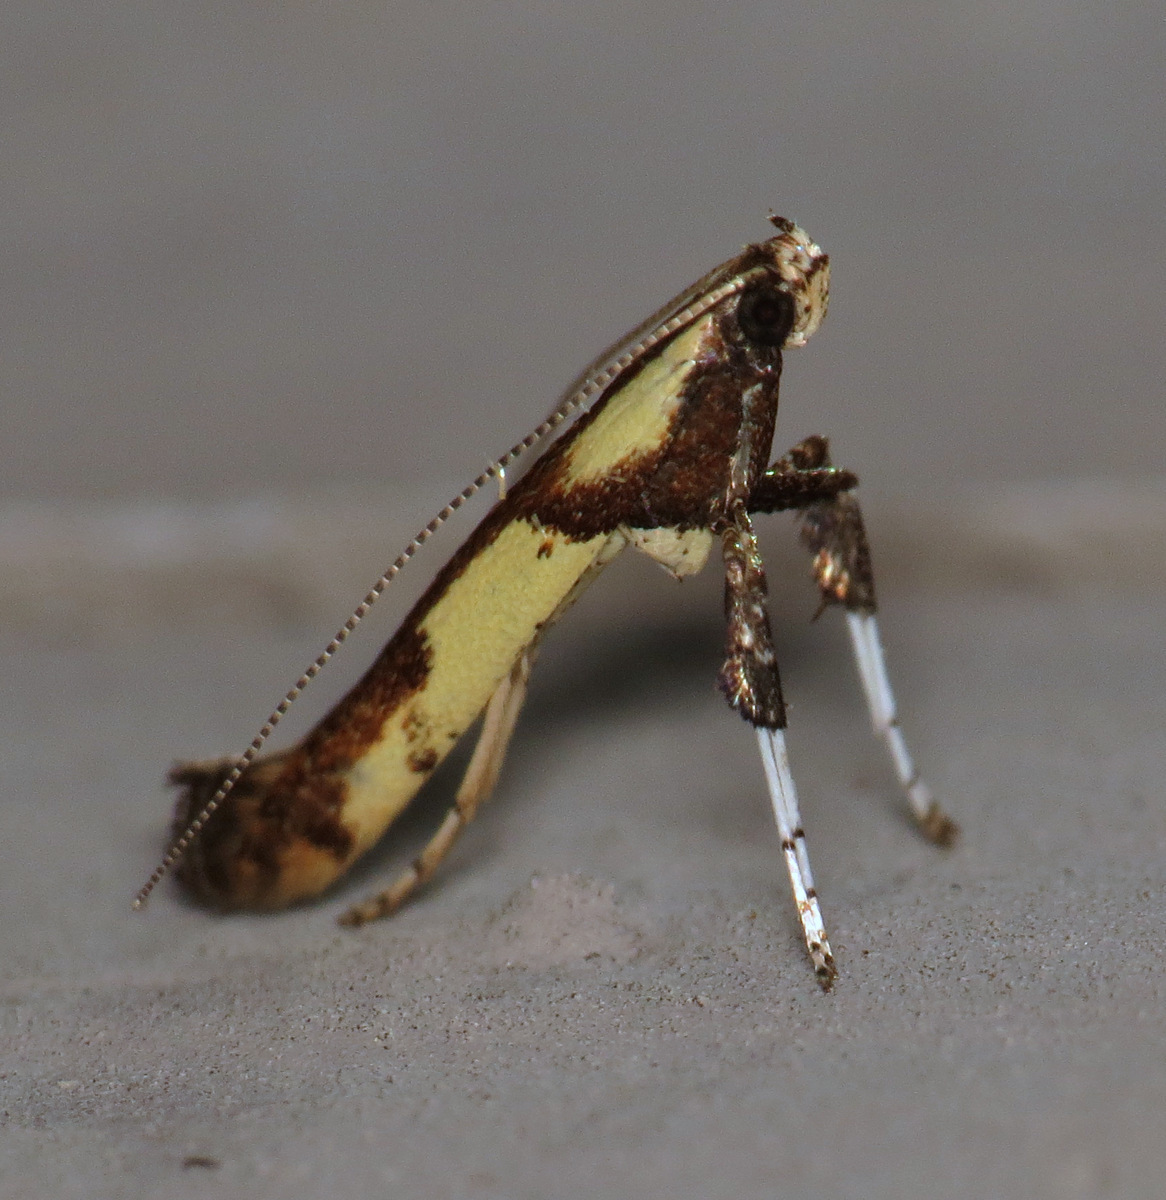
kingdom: Animalia
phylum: Arthropoda
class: Insecta
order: Lepidoptera
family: Gracillariidae
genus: Caloptilia
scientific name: Caloptilia blandella
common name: Walnut caloptilia moth
